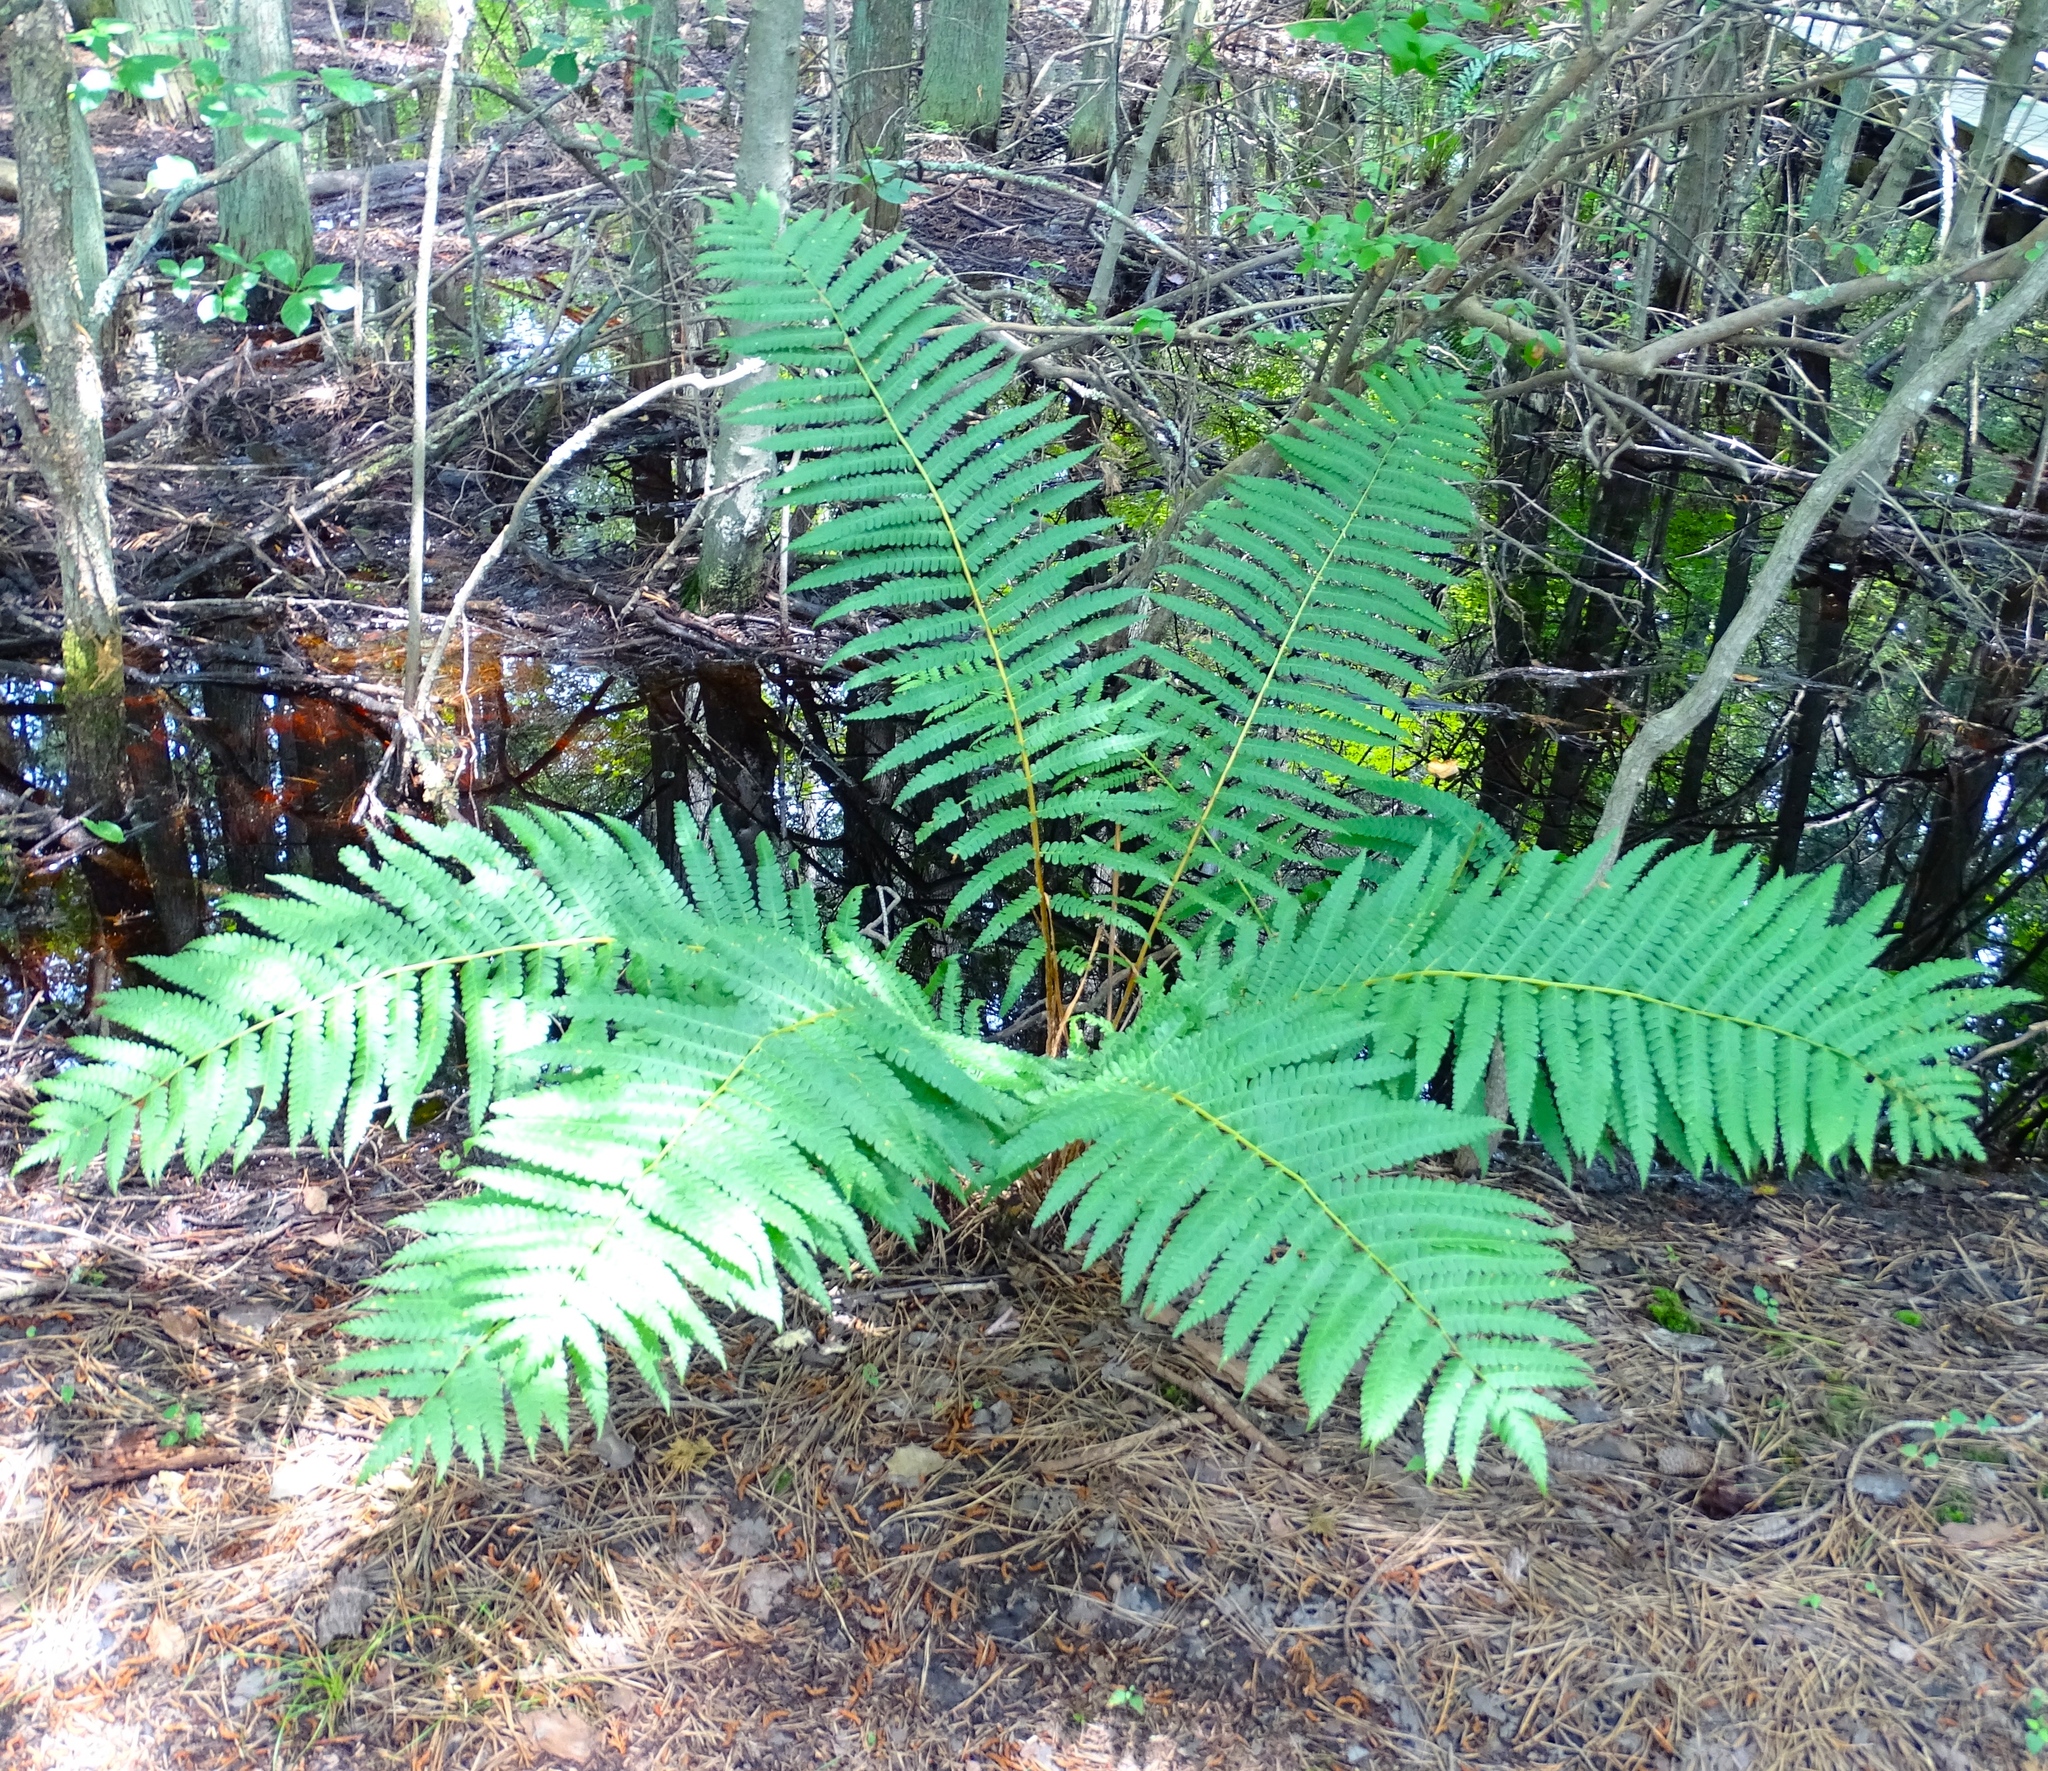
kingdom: Plantae
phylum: Tracheophyta
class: Polypodiopsida
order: Osmundales
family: Osmundaceae
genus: Osmundastrum
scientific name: Osmundastrum cinnamomeum
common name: Cinnamon fern
